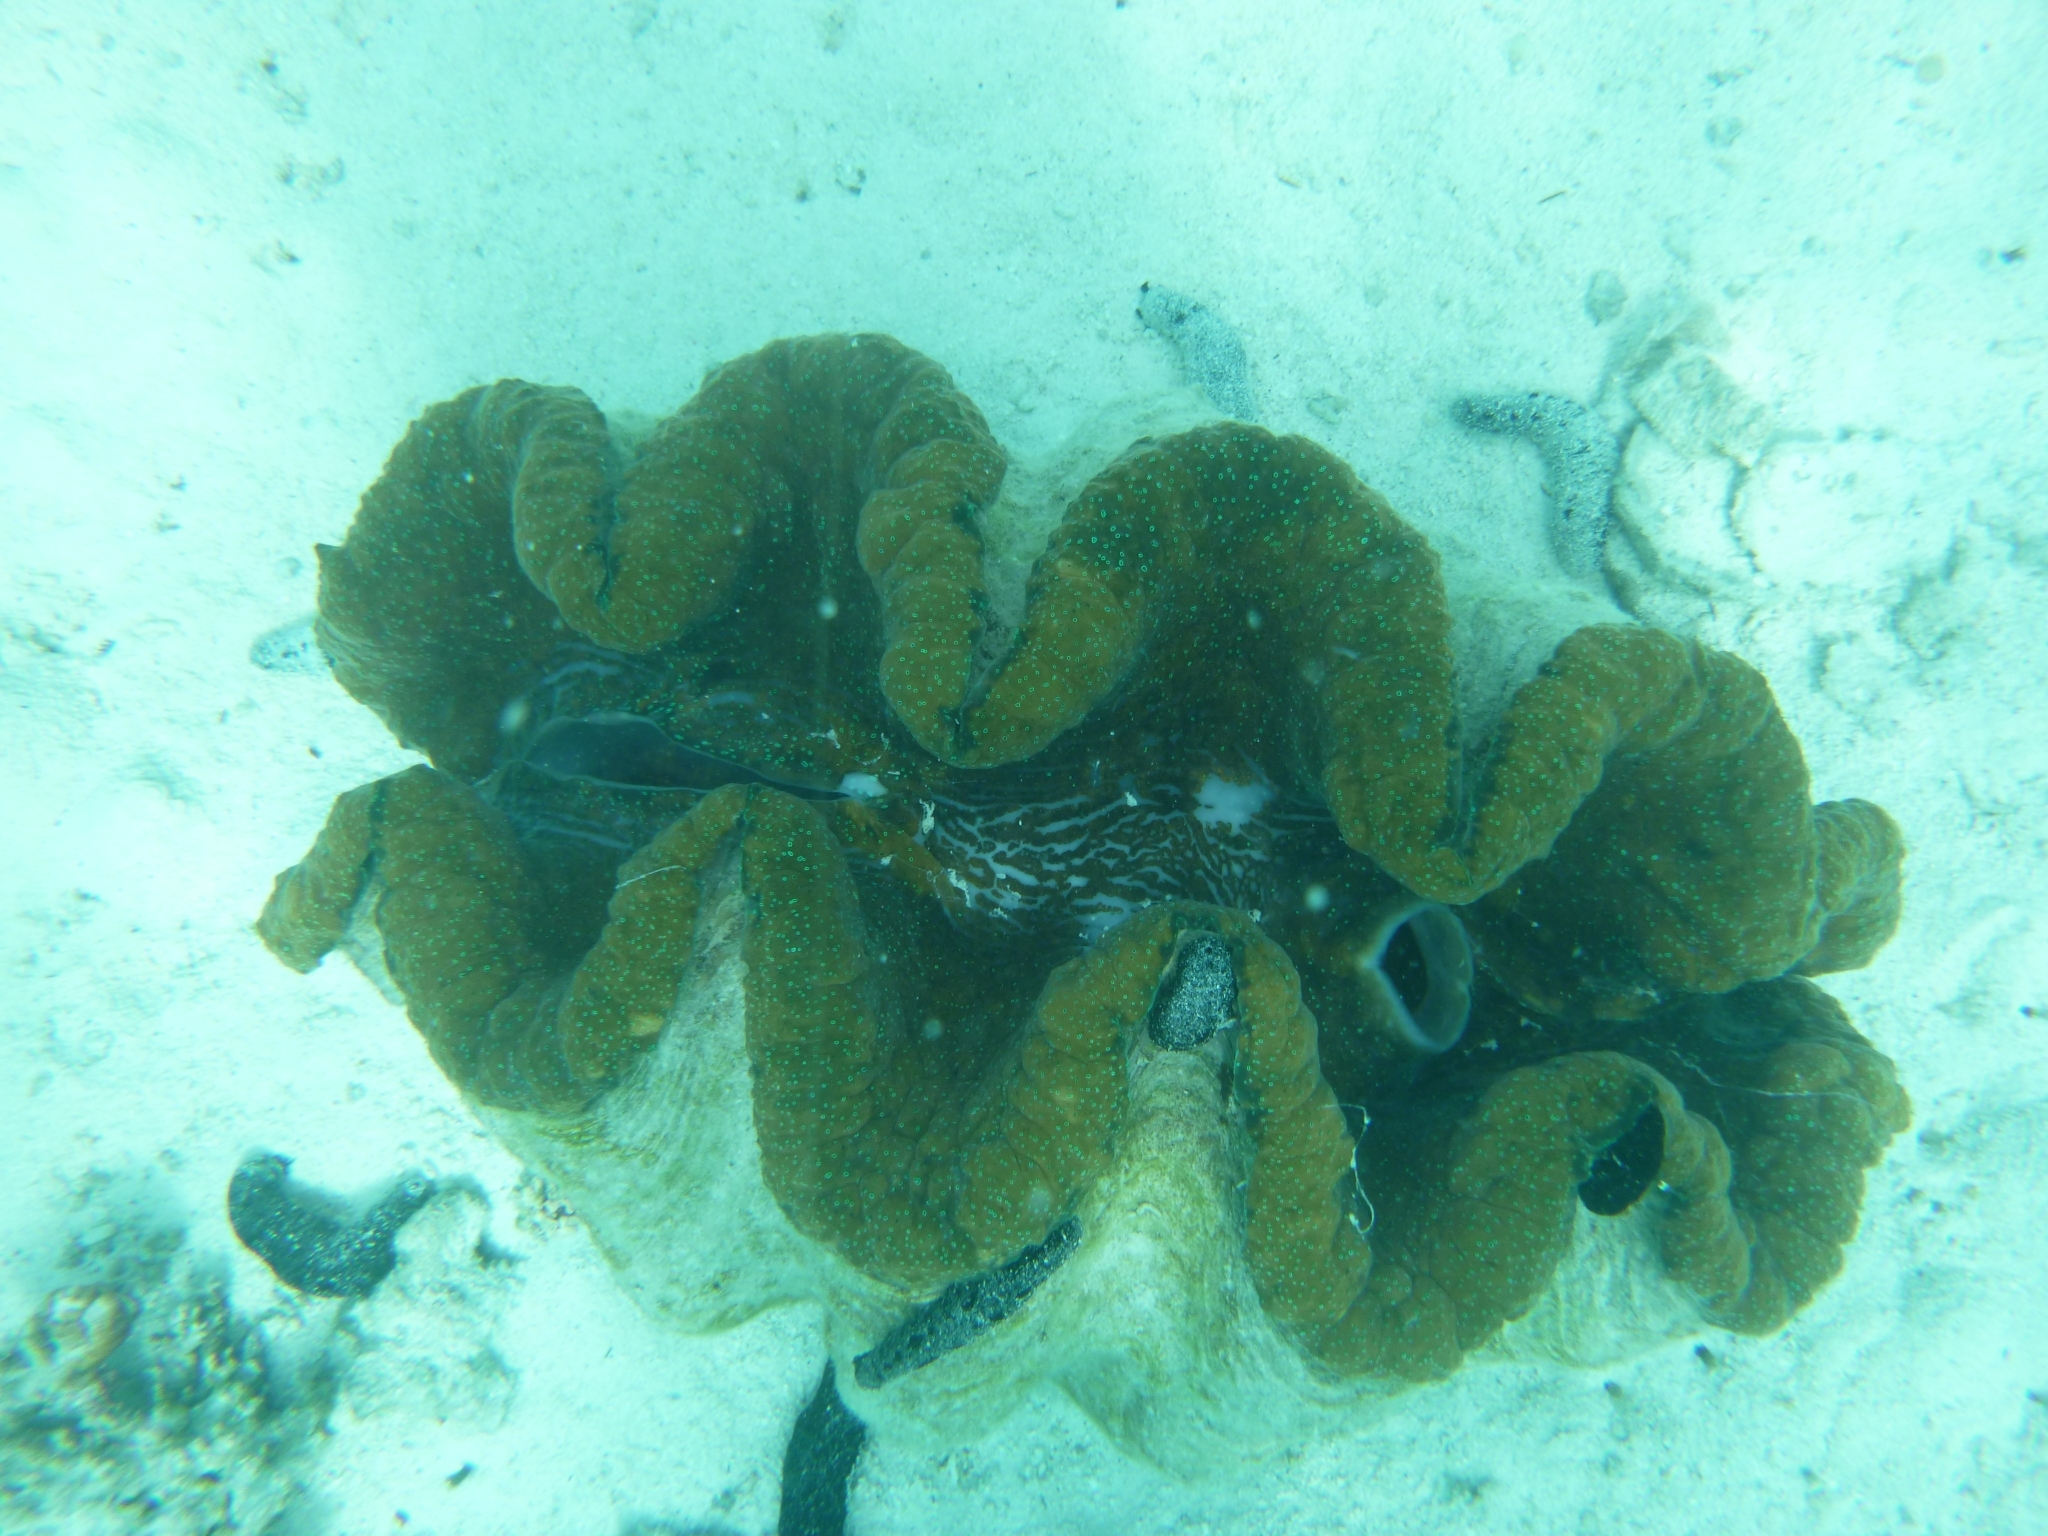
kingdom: Animalia
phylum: Mollusca
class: Bivalvia
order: Cardiida
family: Cardiidae
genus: Tridacna
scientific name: Tridacna gigas
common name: Giant clam
